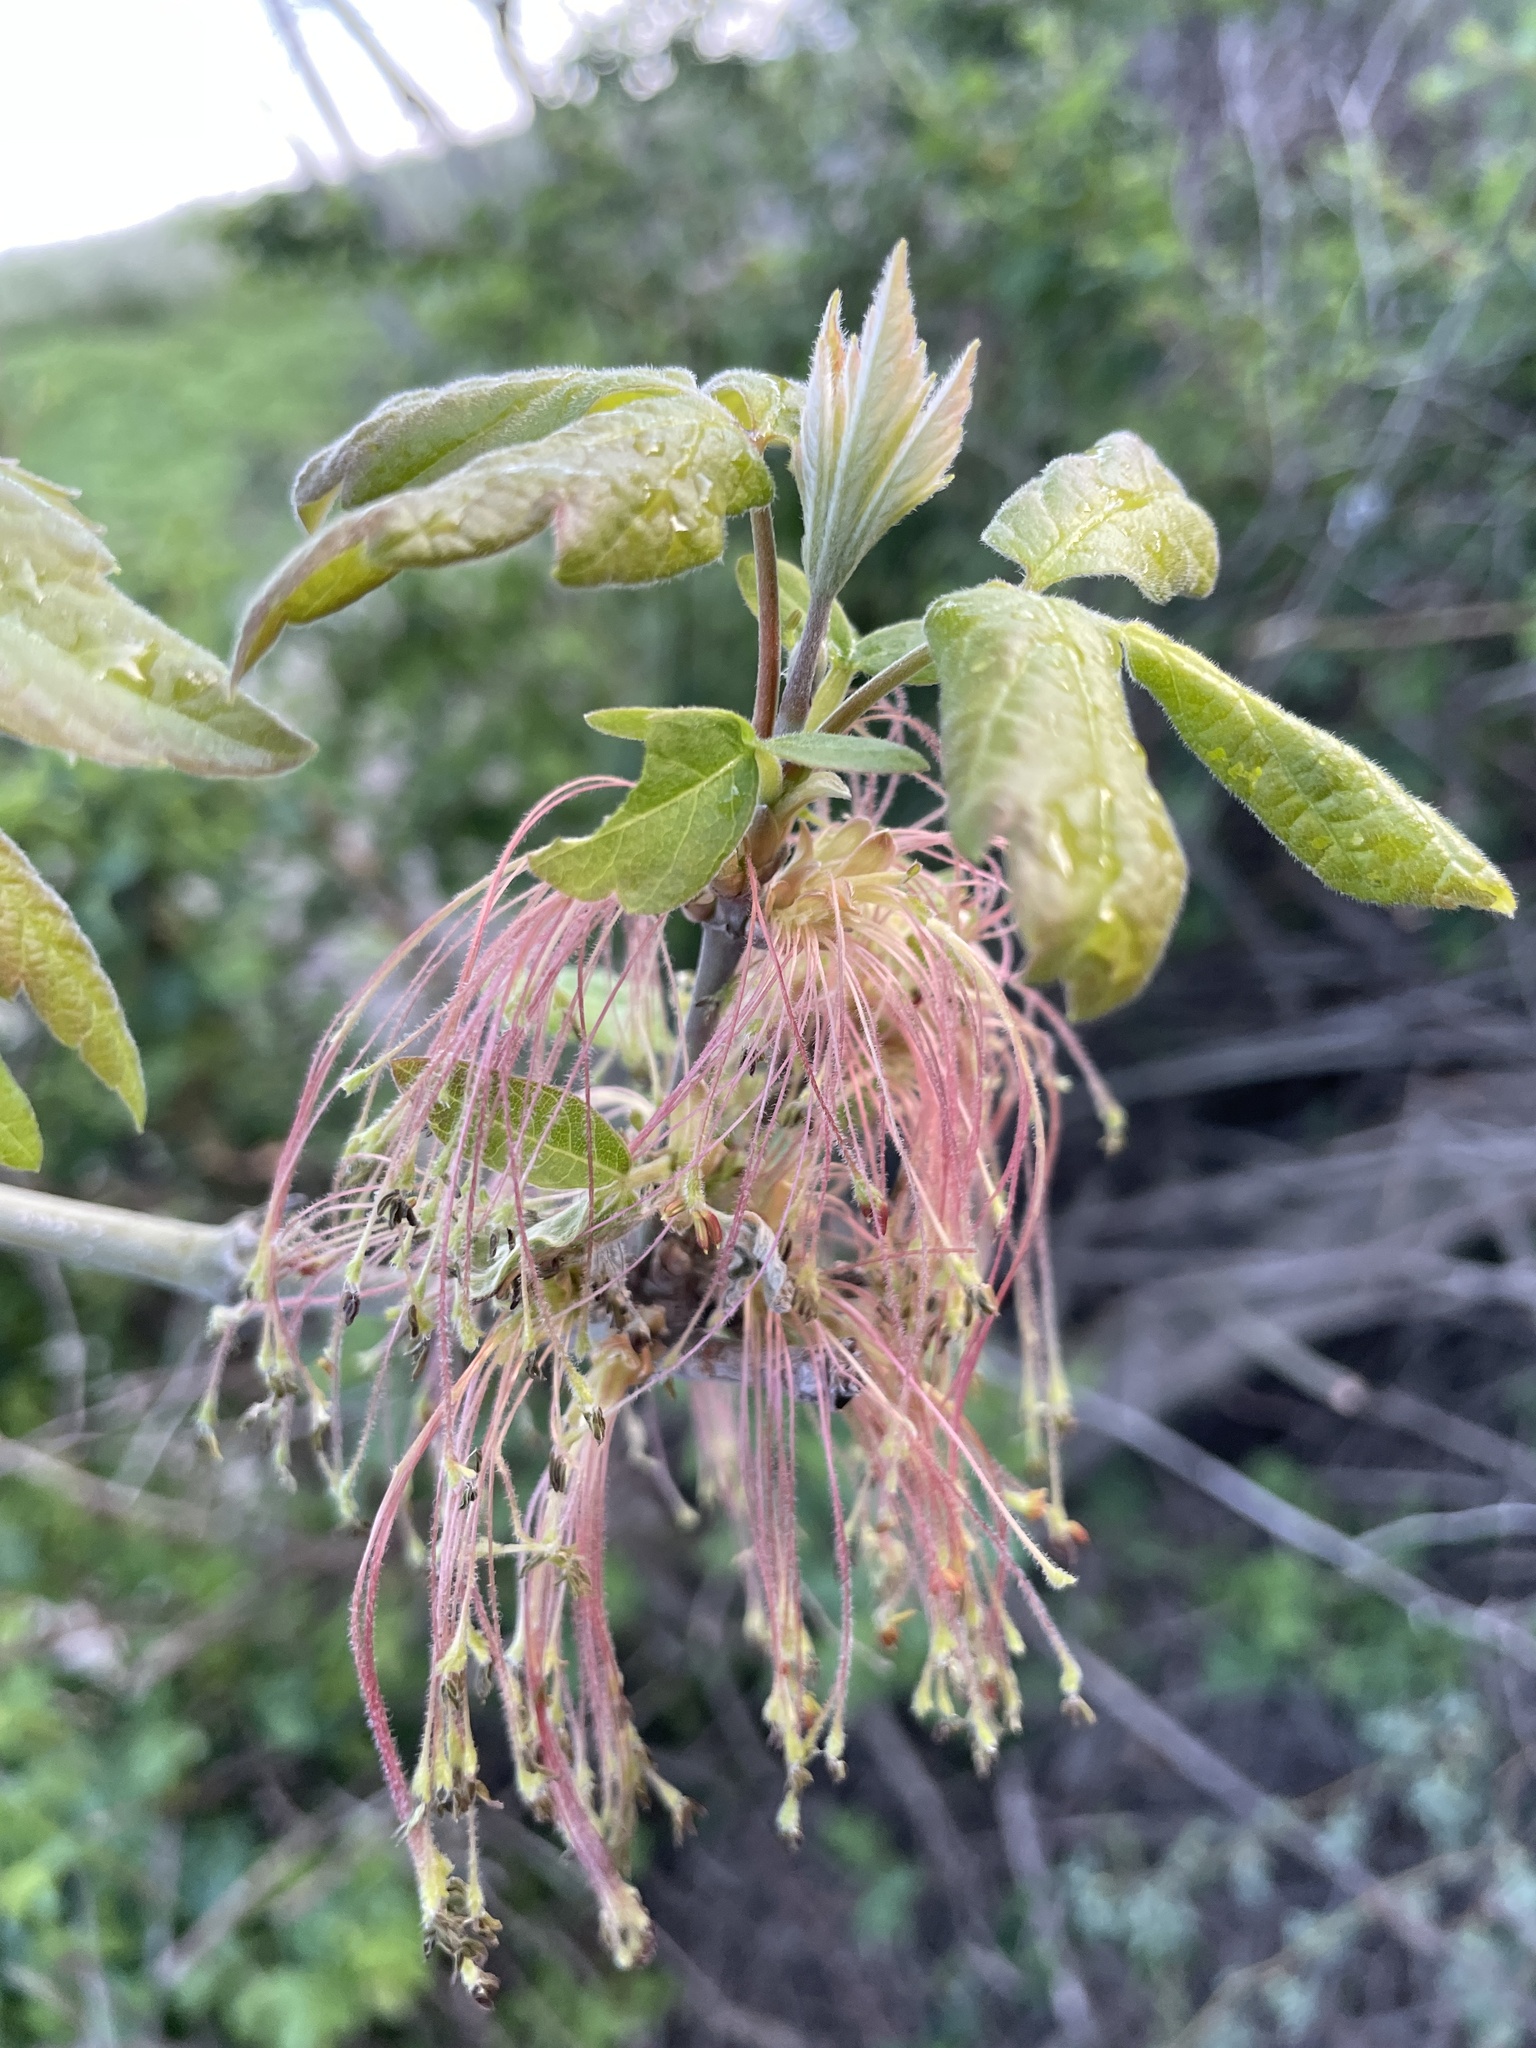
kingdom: Plantae
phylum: Tracheophyta
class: Magnoliopsida
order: Sapindales
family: Sapindaceae
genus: Acer
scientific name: Acer negundo
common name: Ashleaf maple
